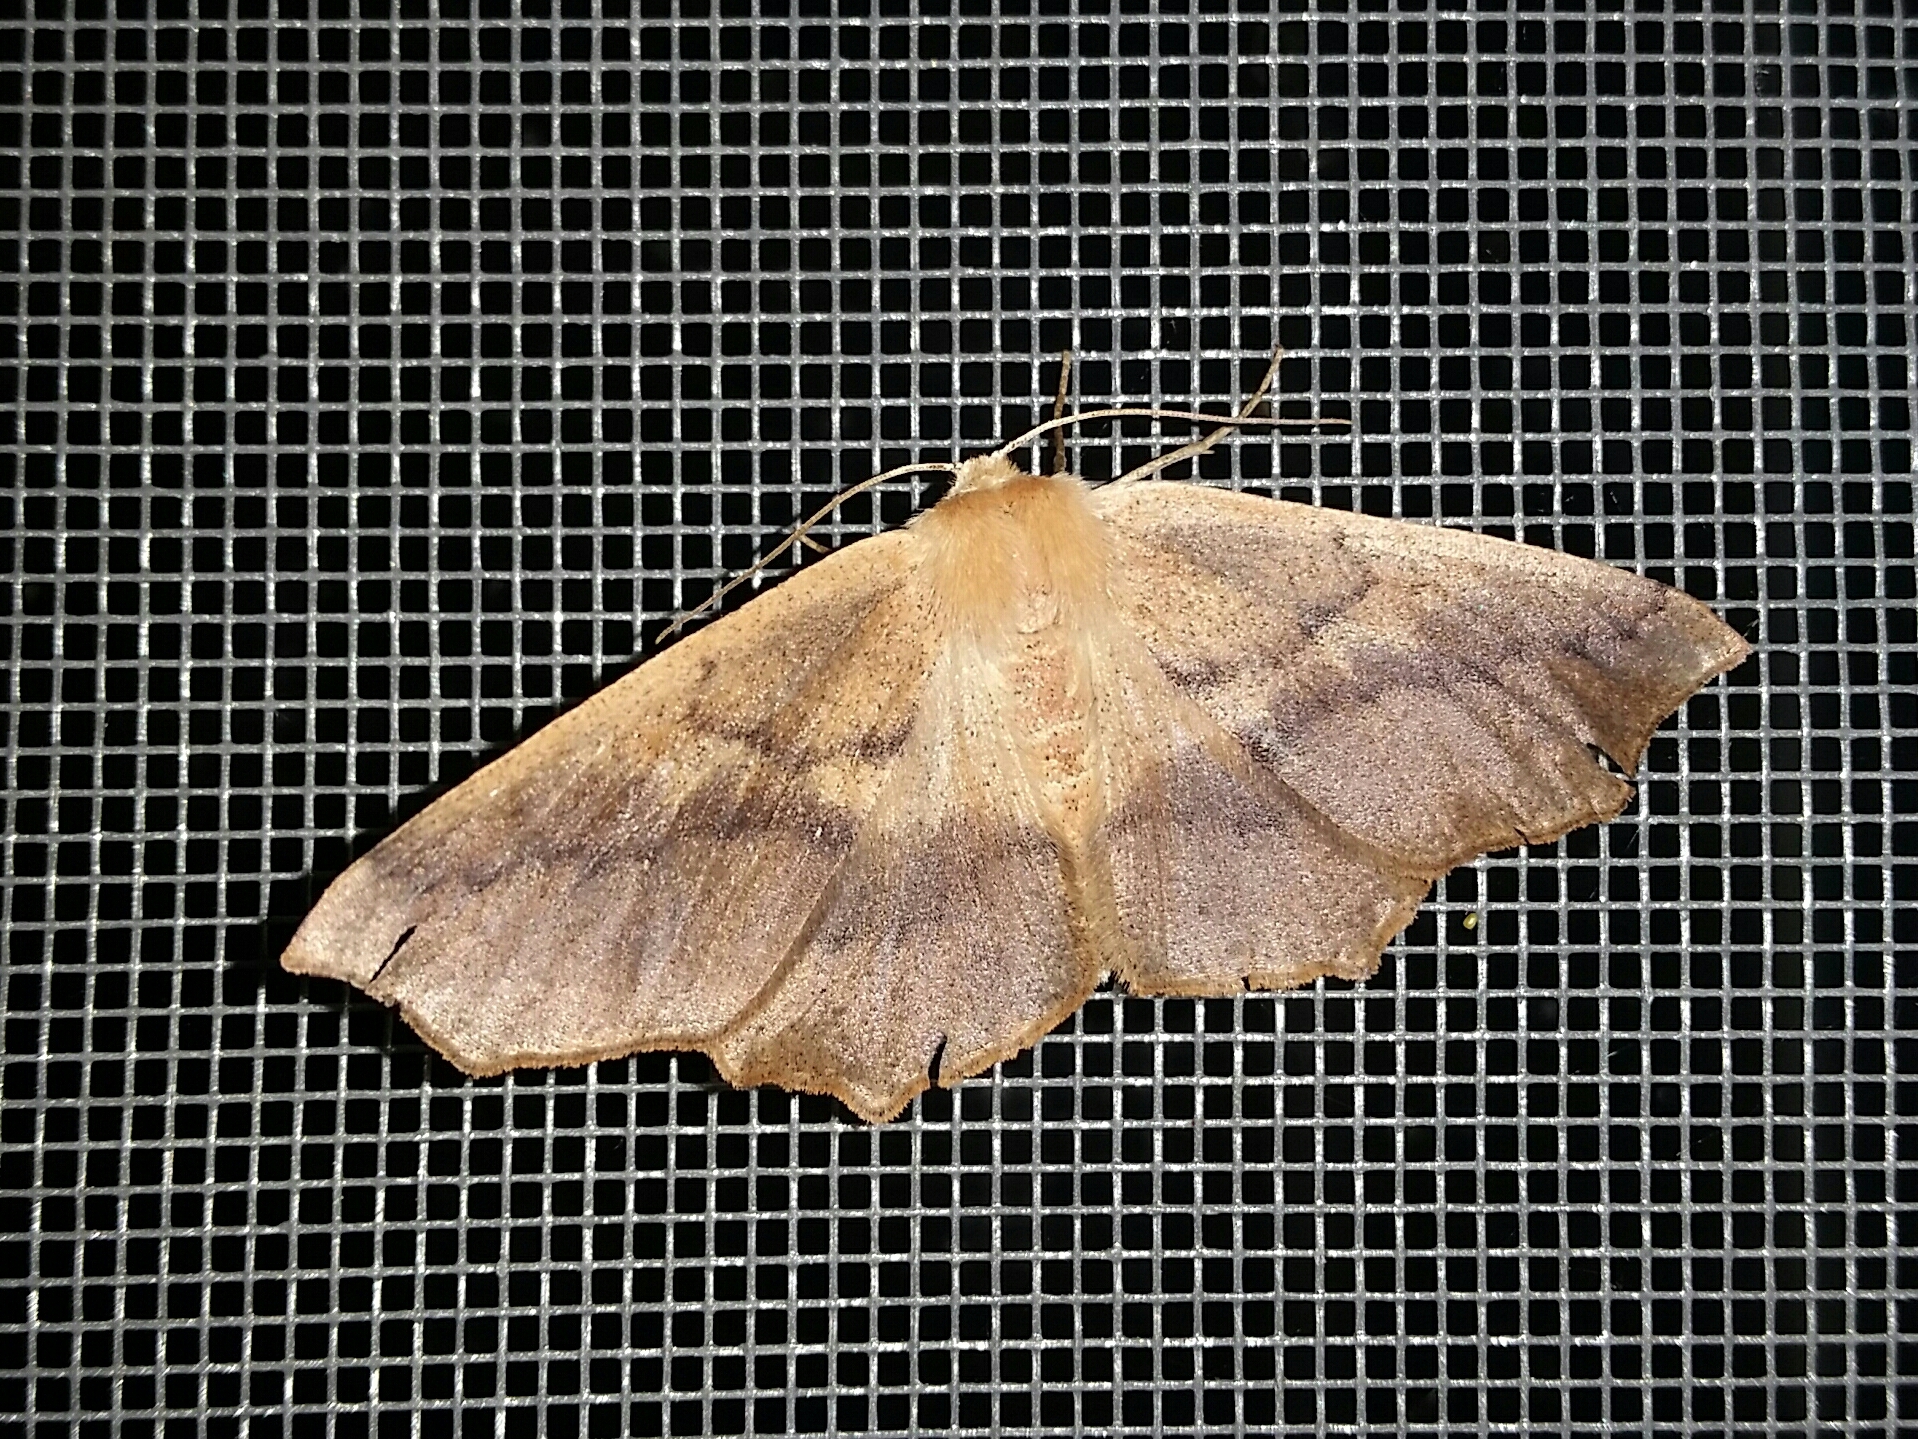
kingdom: Animalia
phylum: Arthropoda
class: Insecta
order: Lepidoptera
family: Geometridae
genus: Sabulodes
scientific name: Sabulodes aegrotata
